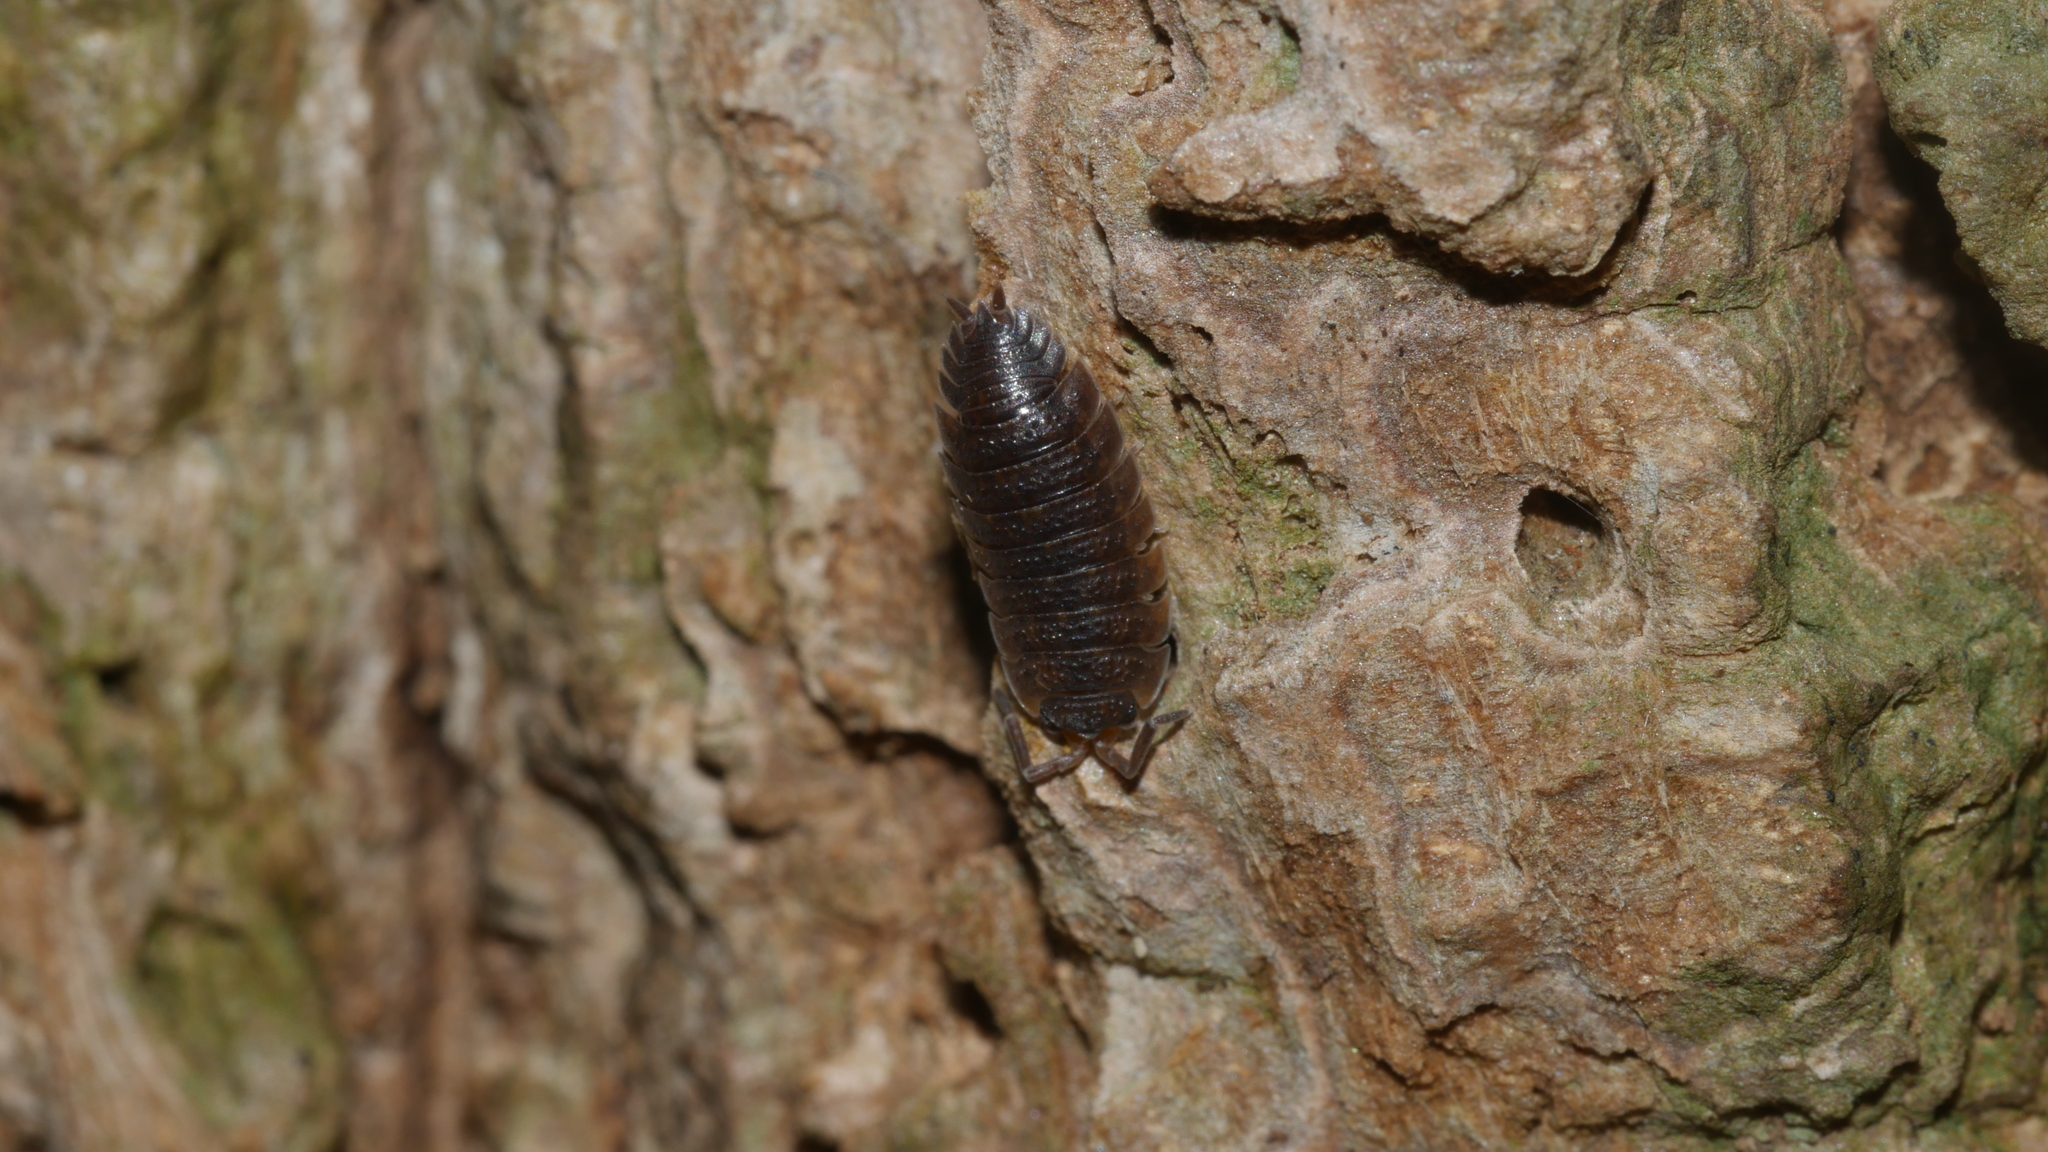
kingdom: Animalia
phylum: Arthropoda
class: Malacostraca
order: Isopoda
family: Porcellionidae
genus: Porcellio
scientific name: Porcellio scaber
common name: Common rough woodlouse
